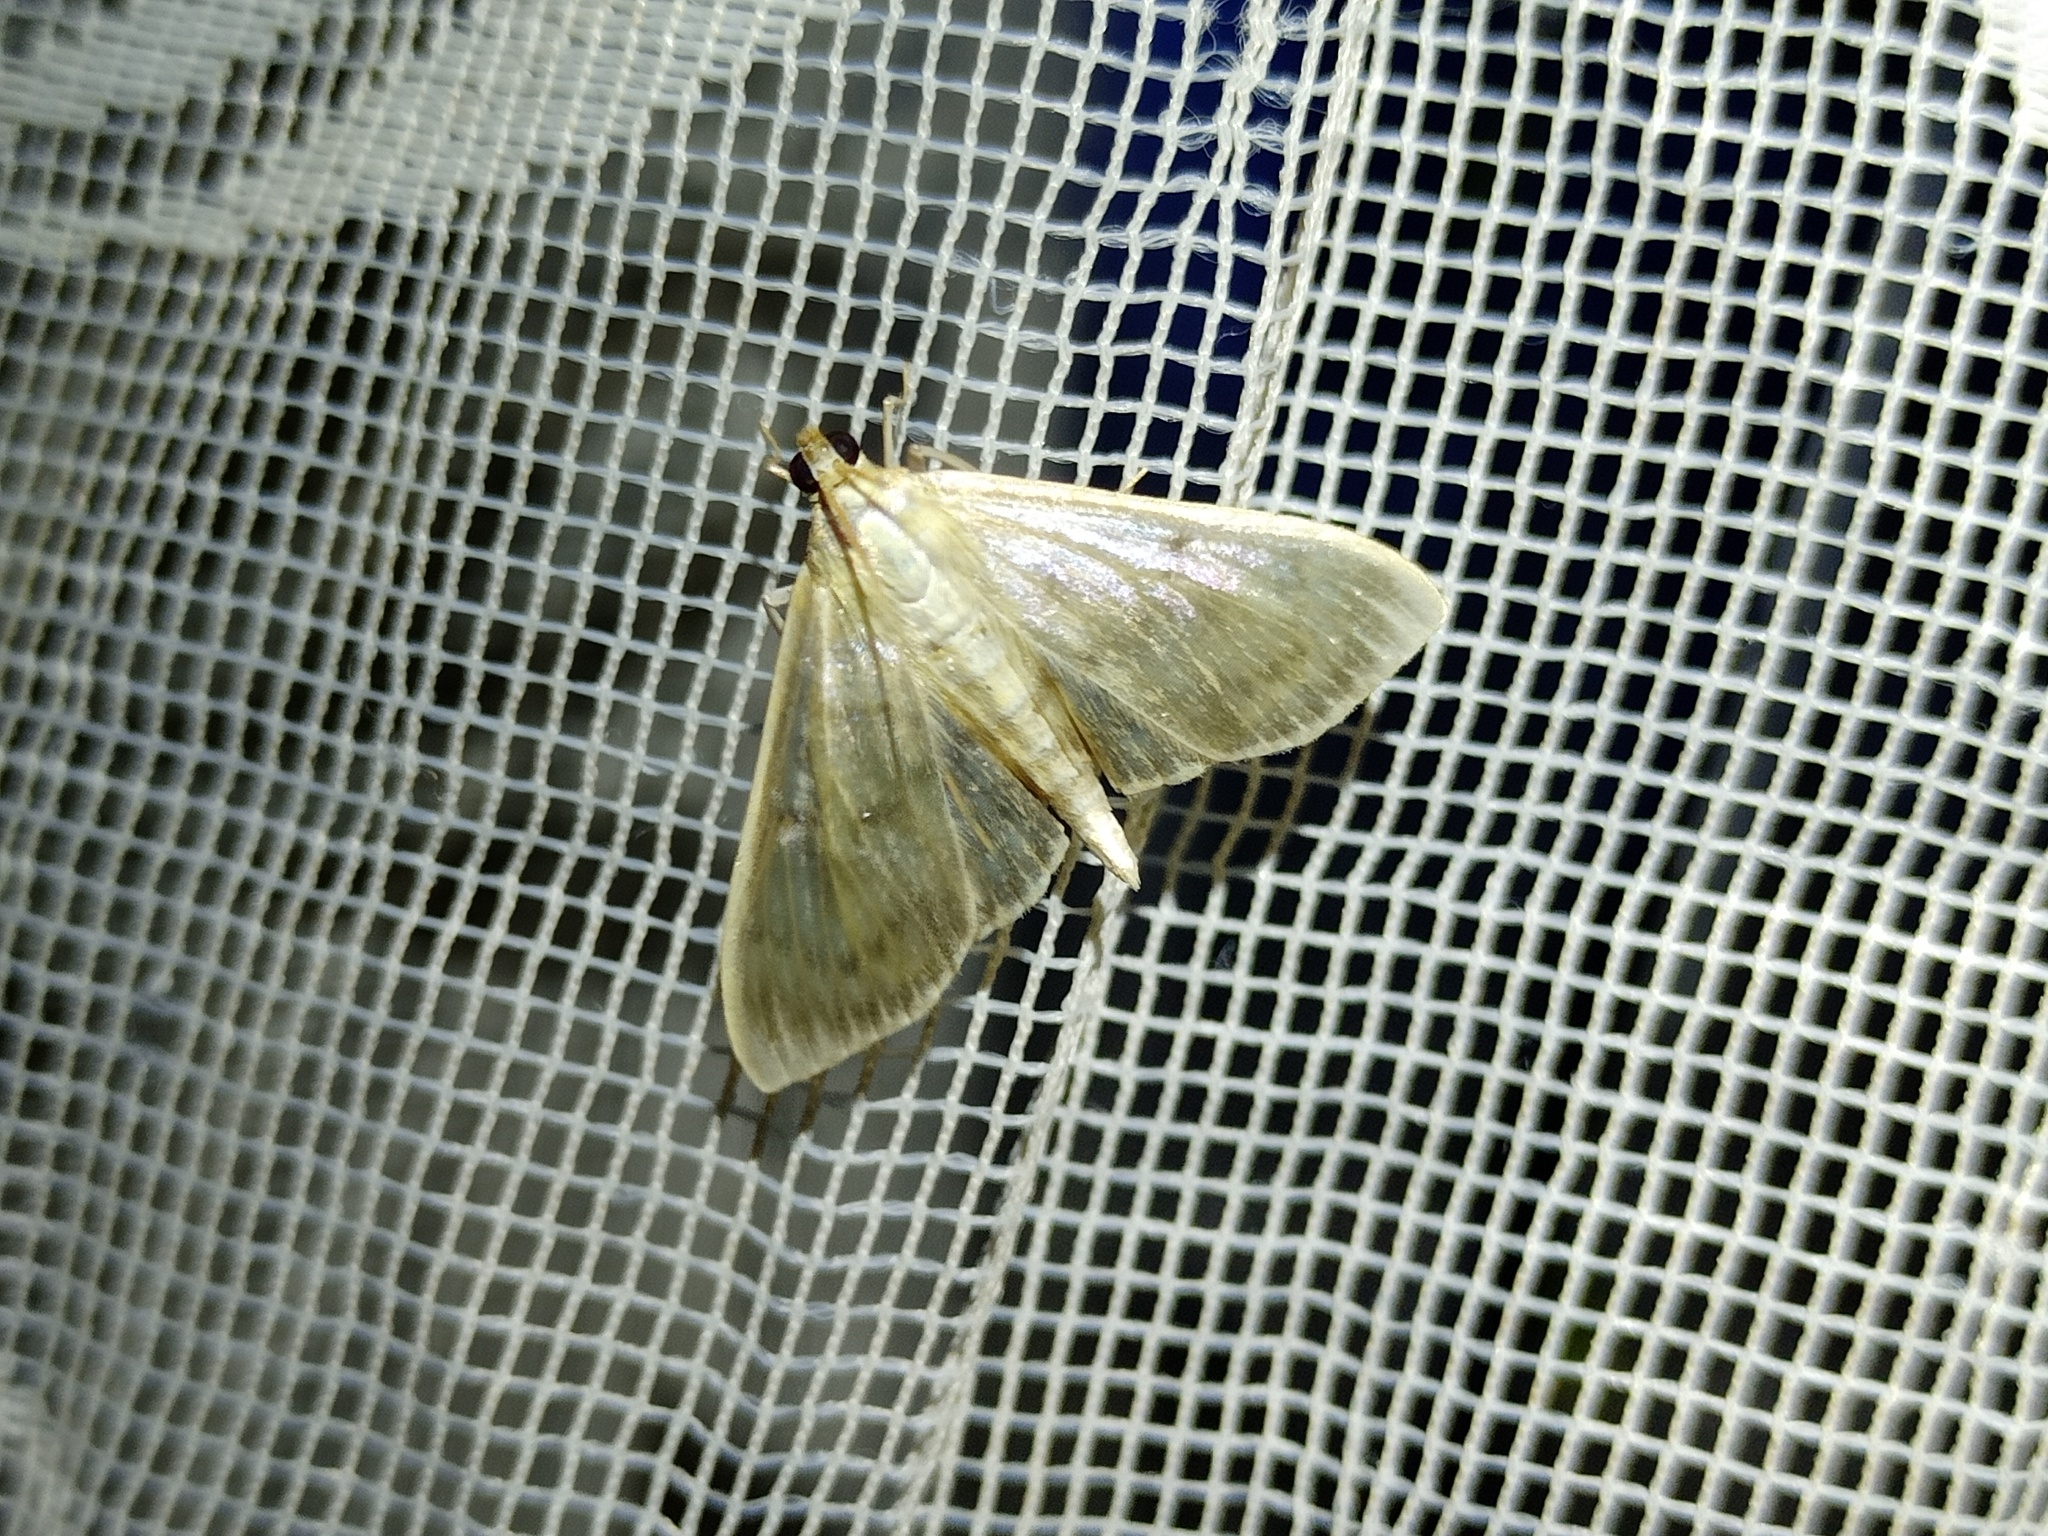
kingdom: Animalia
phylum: Arthropoda
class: Insecta
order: Lepidoptera
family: Crambidae
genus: Patania
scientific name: Patania ruralis
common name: Mother of pearl
